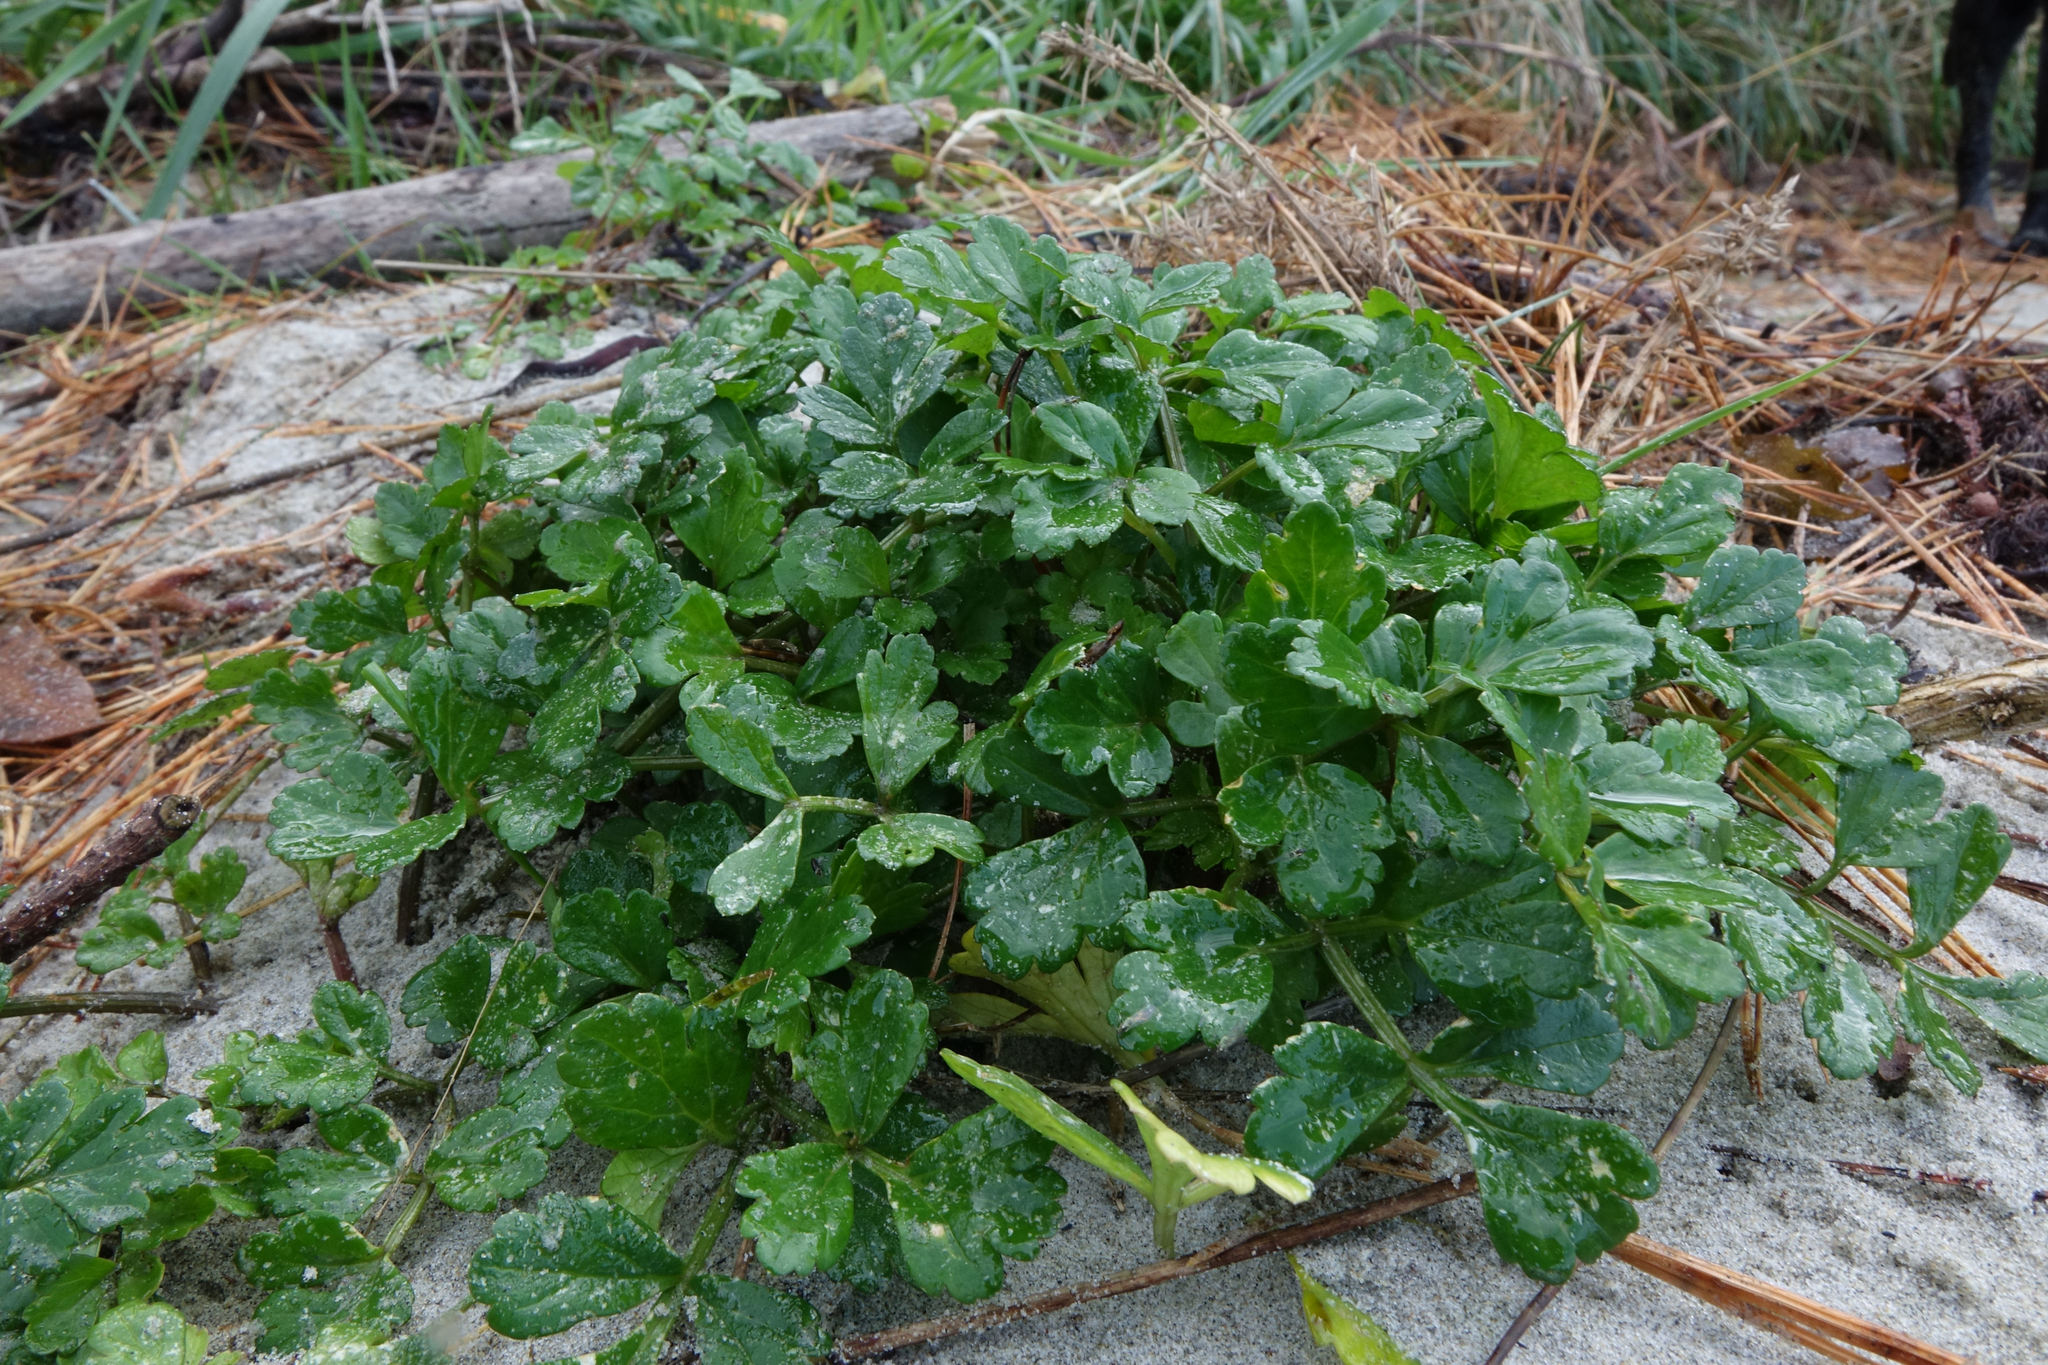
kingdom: Plantae
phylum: Tracheophyta
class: Magnoliopsida
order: Apiales
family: Apiaceae
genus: Apium
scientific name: Apium prostratum
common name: Prostrate marshwort
